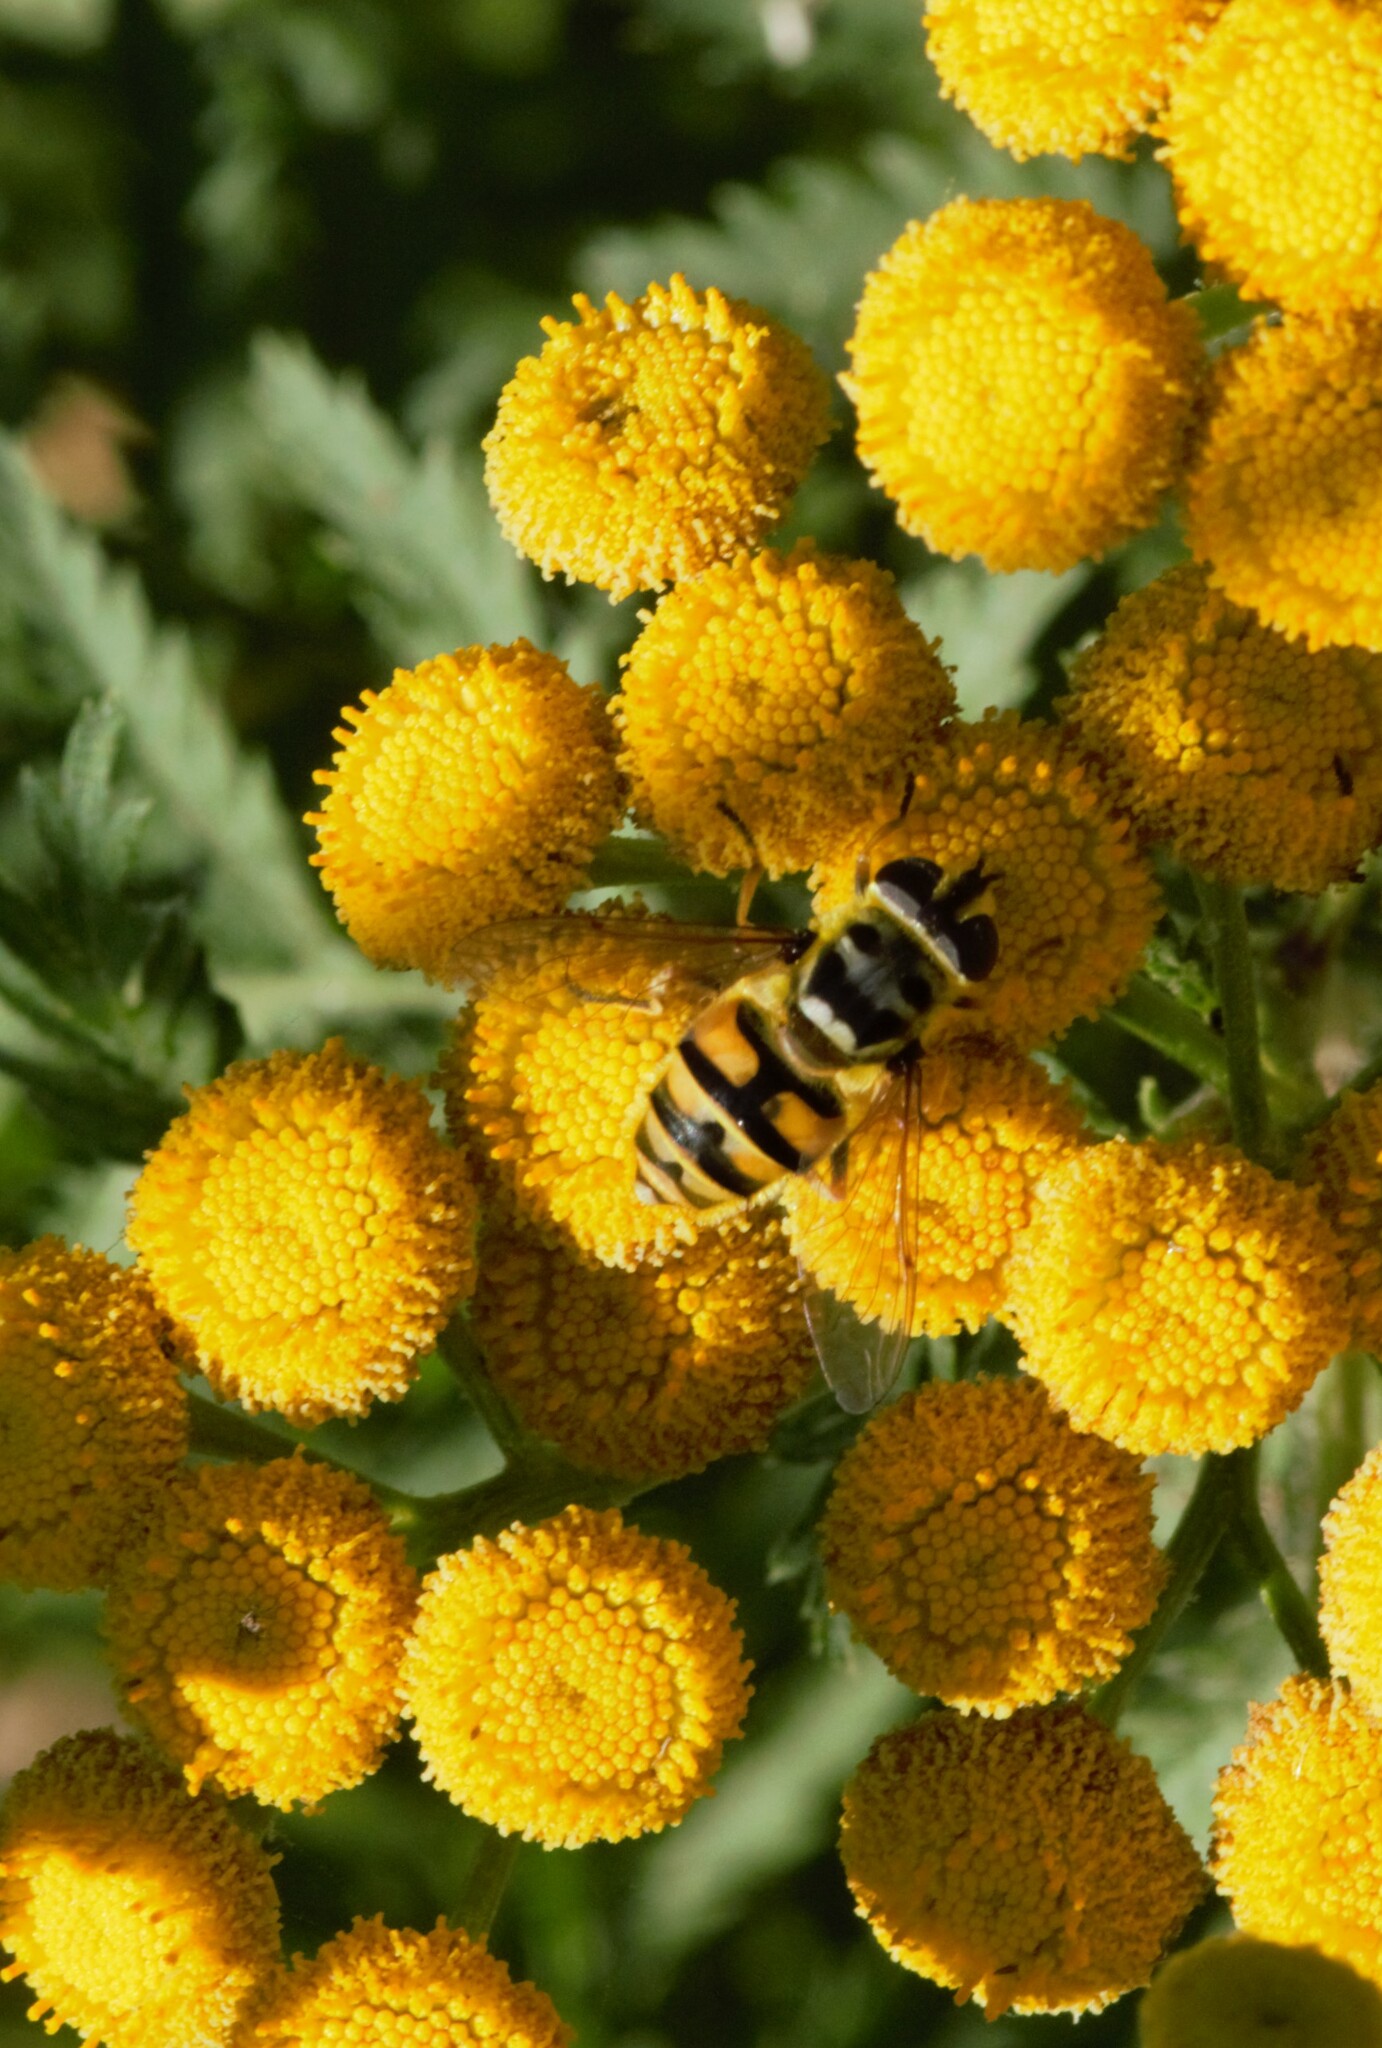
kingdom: Animalia
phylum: Arthropoda
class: Insecta
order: Diptera
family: Syrphidae
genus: Myathropa
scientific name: Myathropa florea
